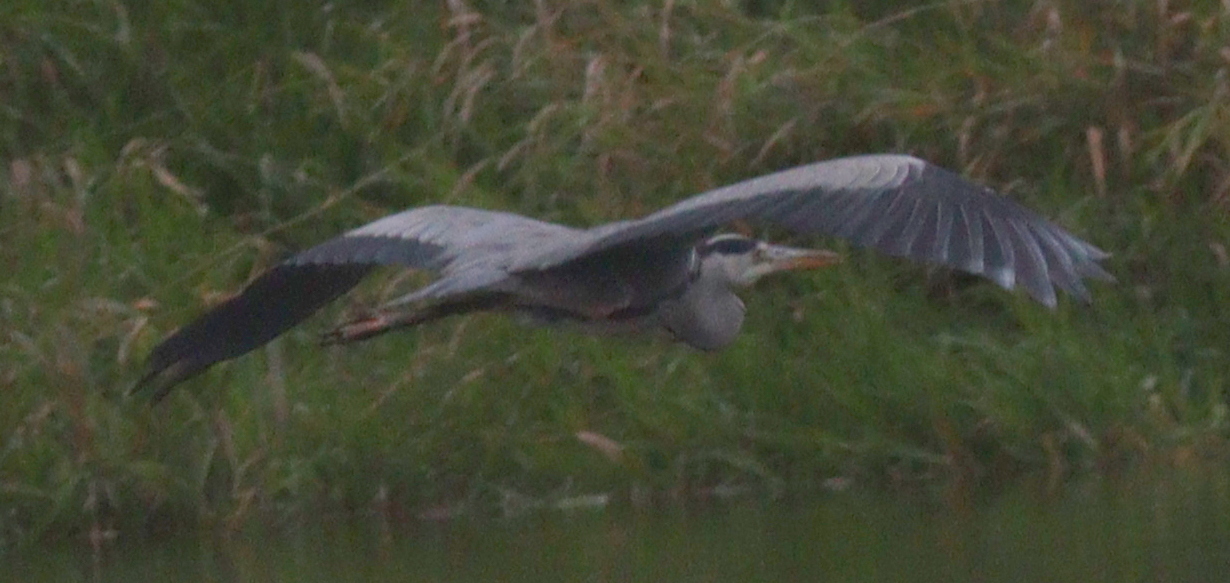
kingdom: Animalia
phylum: Chordata
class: Aves
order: Pelecaniformes
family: Ardeidae
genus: Ardea
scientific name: Ardea cinerea
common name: Grey heron
